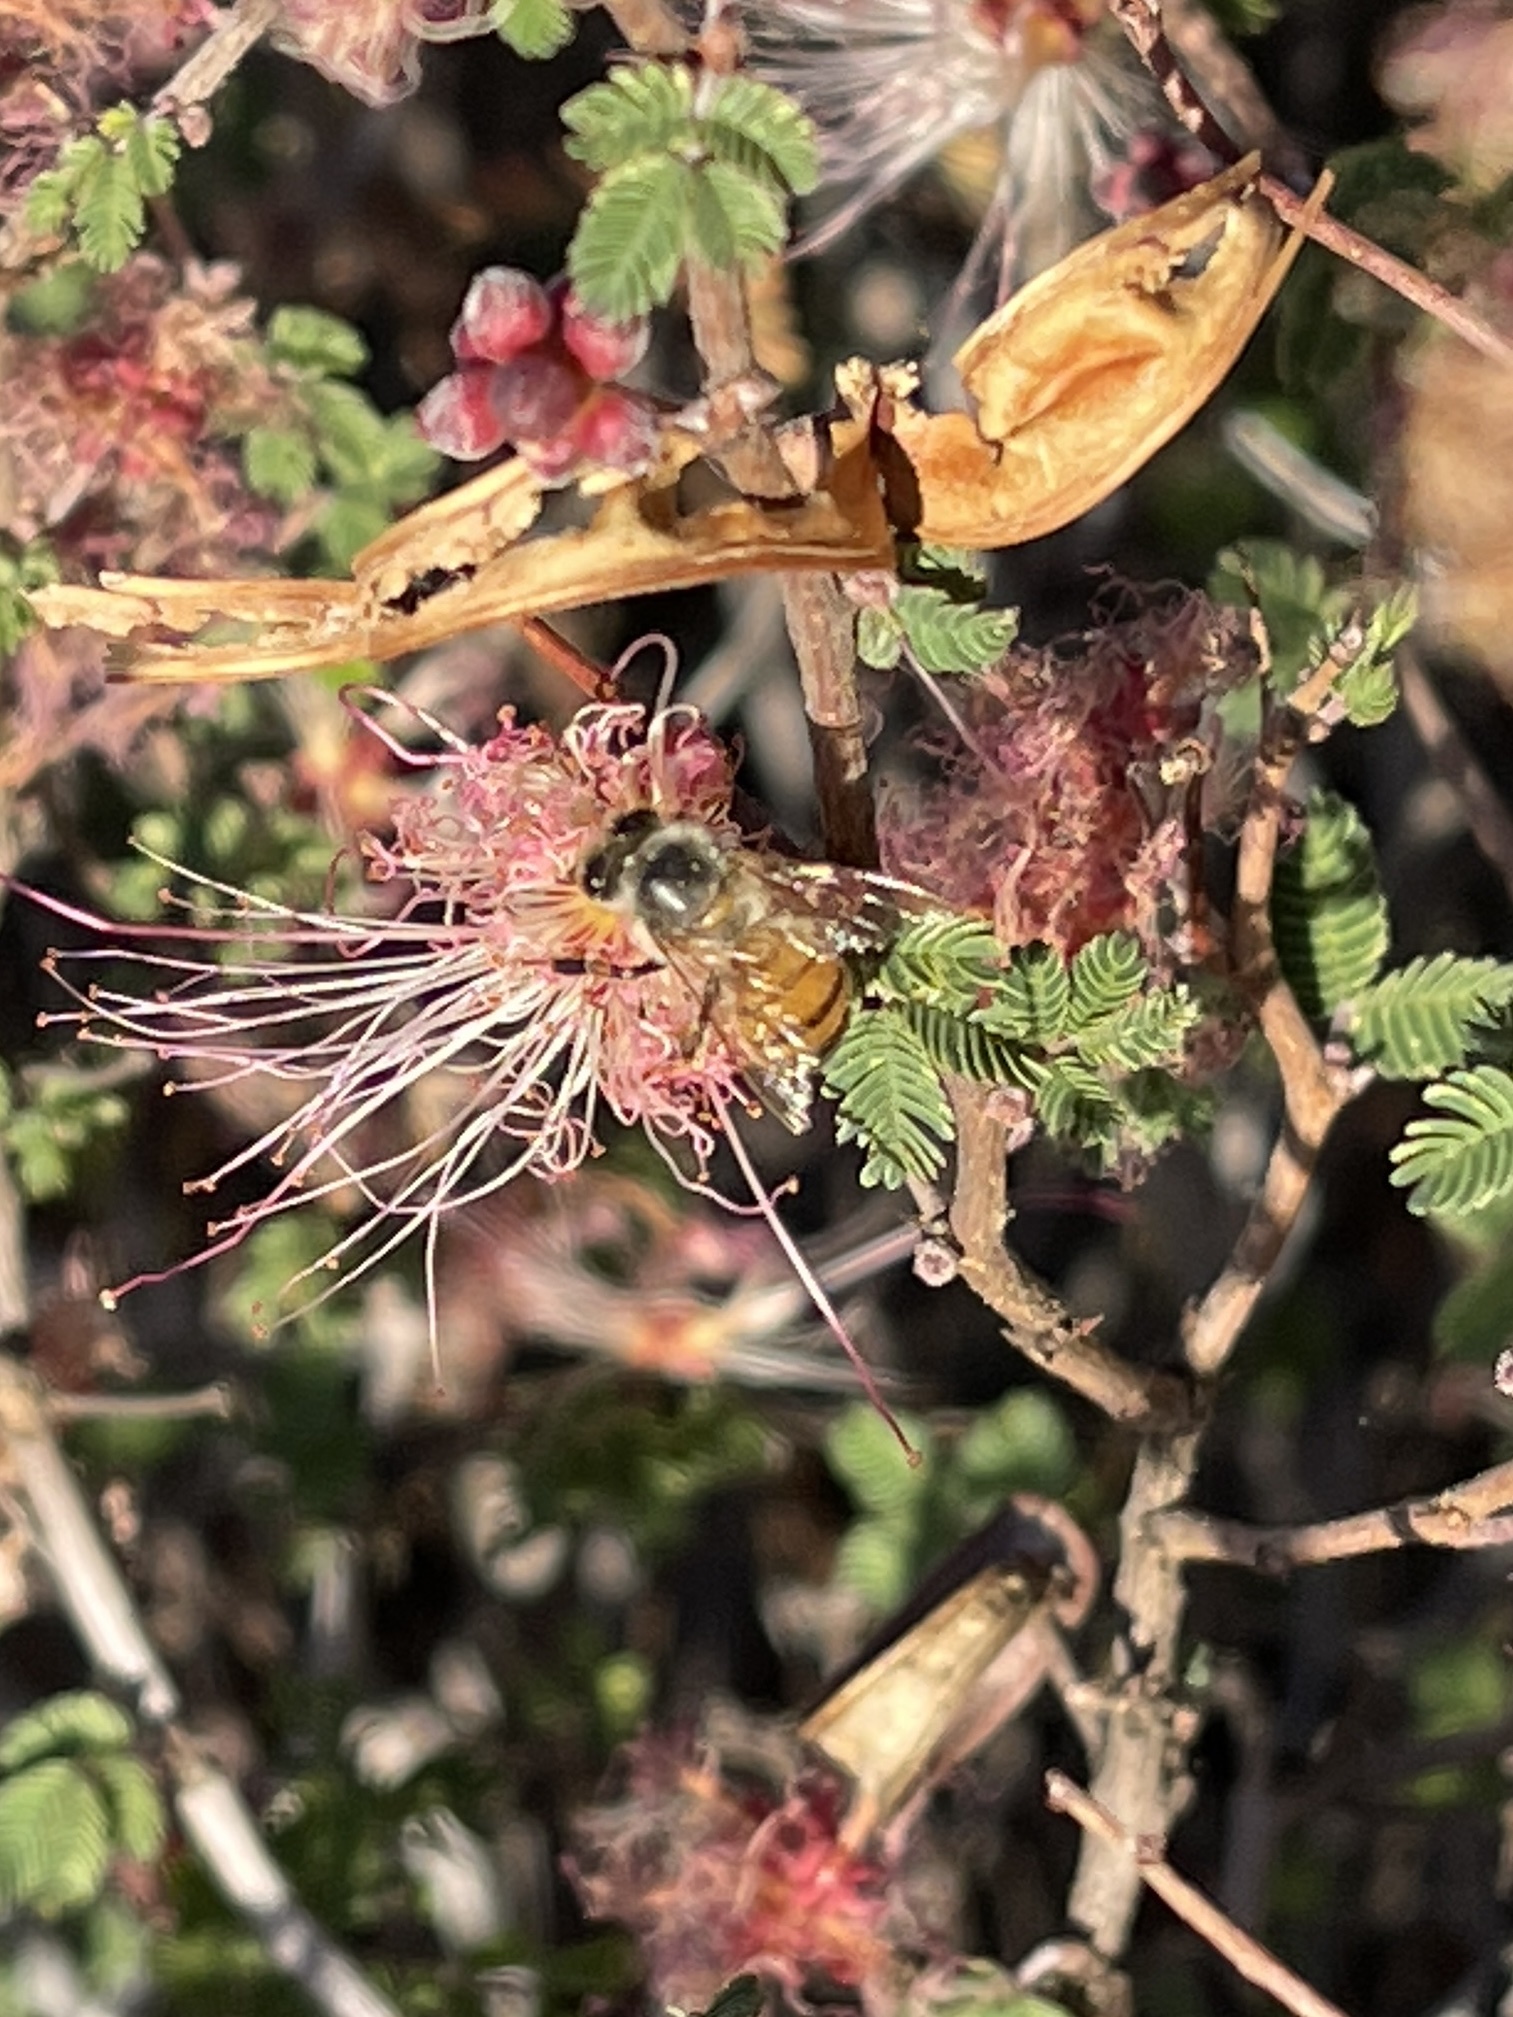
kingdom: Animalia
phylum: Arthropoda
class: Insecta
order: Hymenoptera
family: Apidae
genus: Apis
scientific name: Apis mellifera
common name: Honey bee
